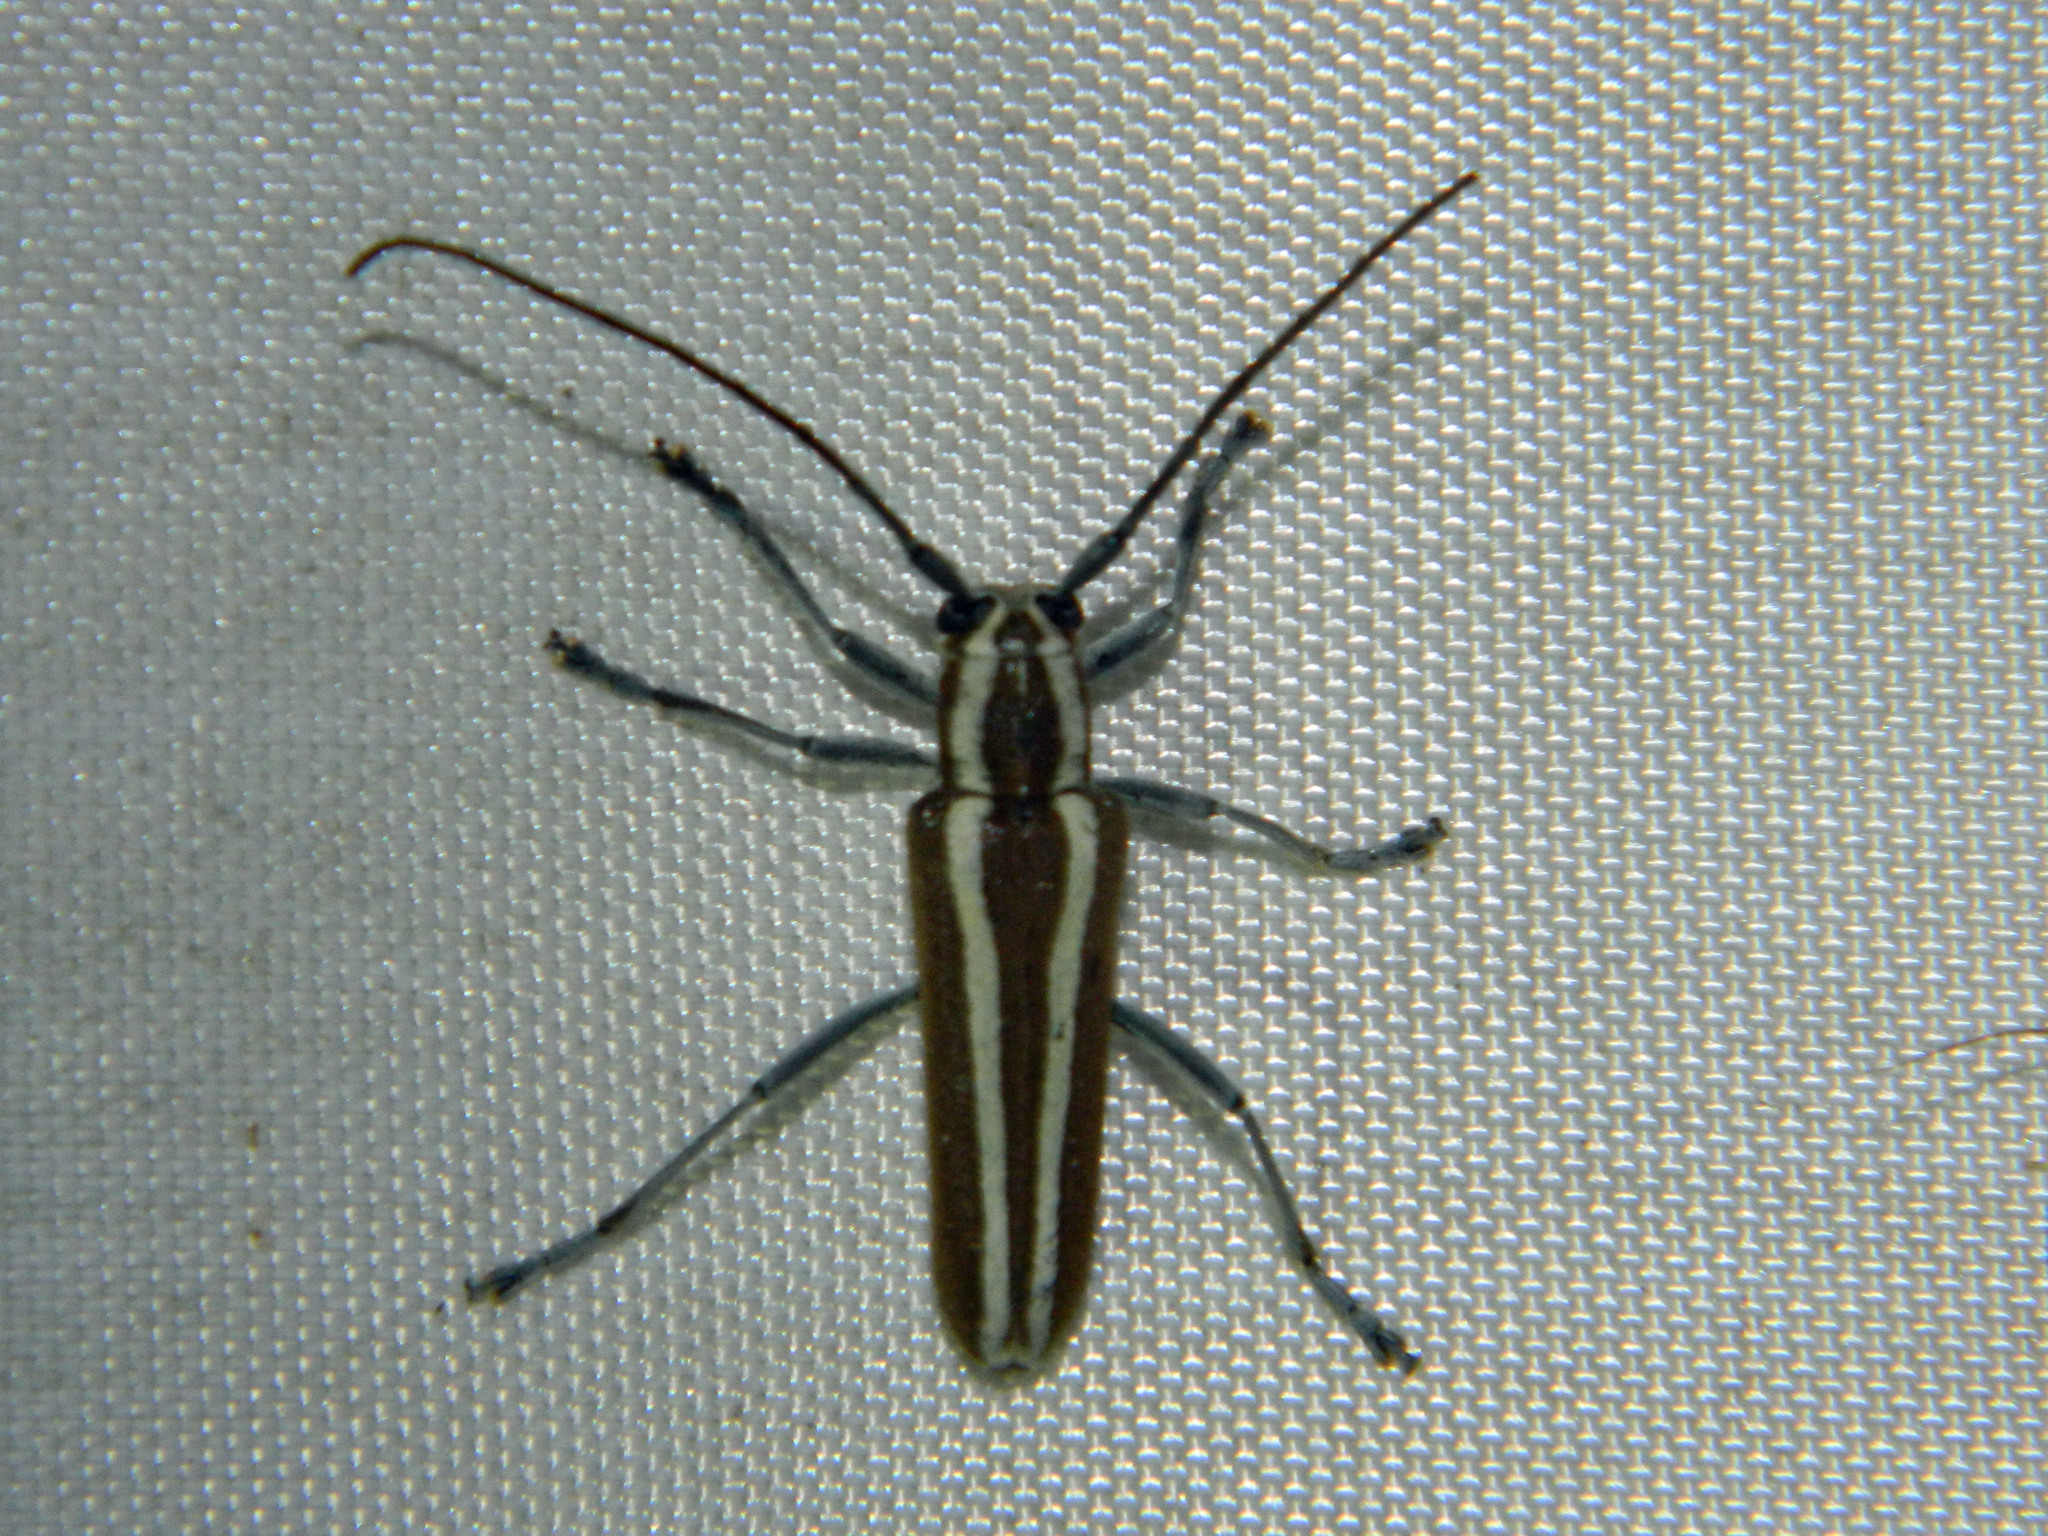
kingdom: Animalia
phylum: Arthropoda
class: Insecta
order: Coleoptera
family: Cerambycidae
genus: Saperda
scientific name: Saperda candida
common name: Round-headed borer
